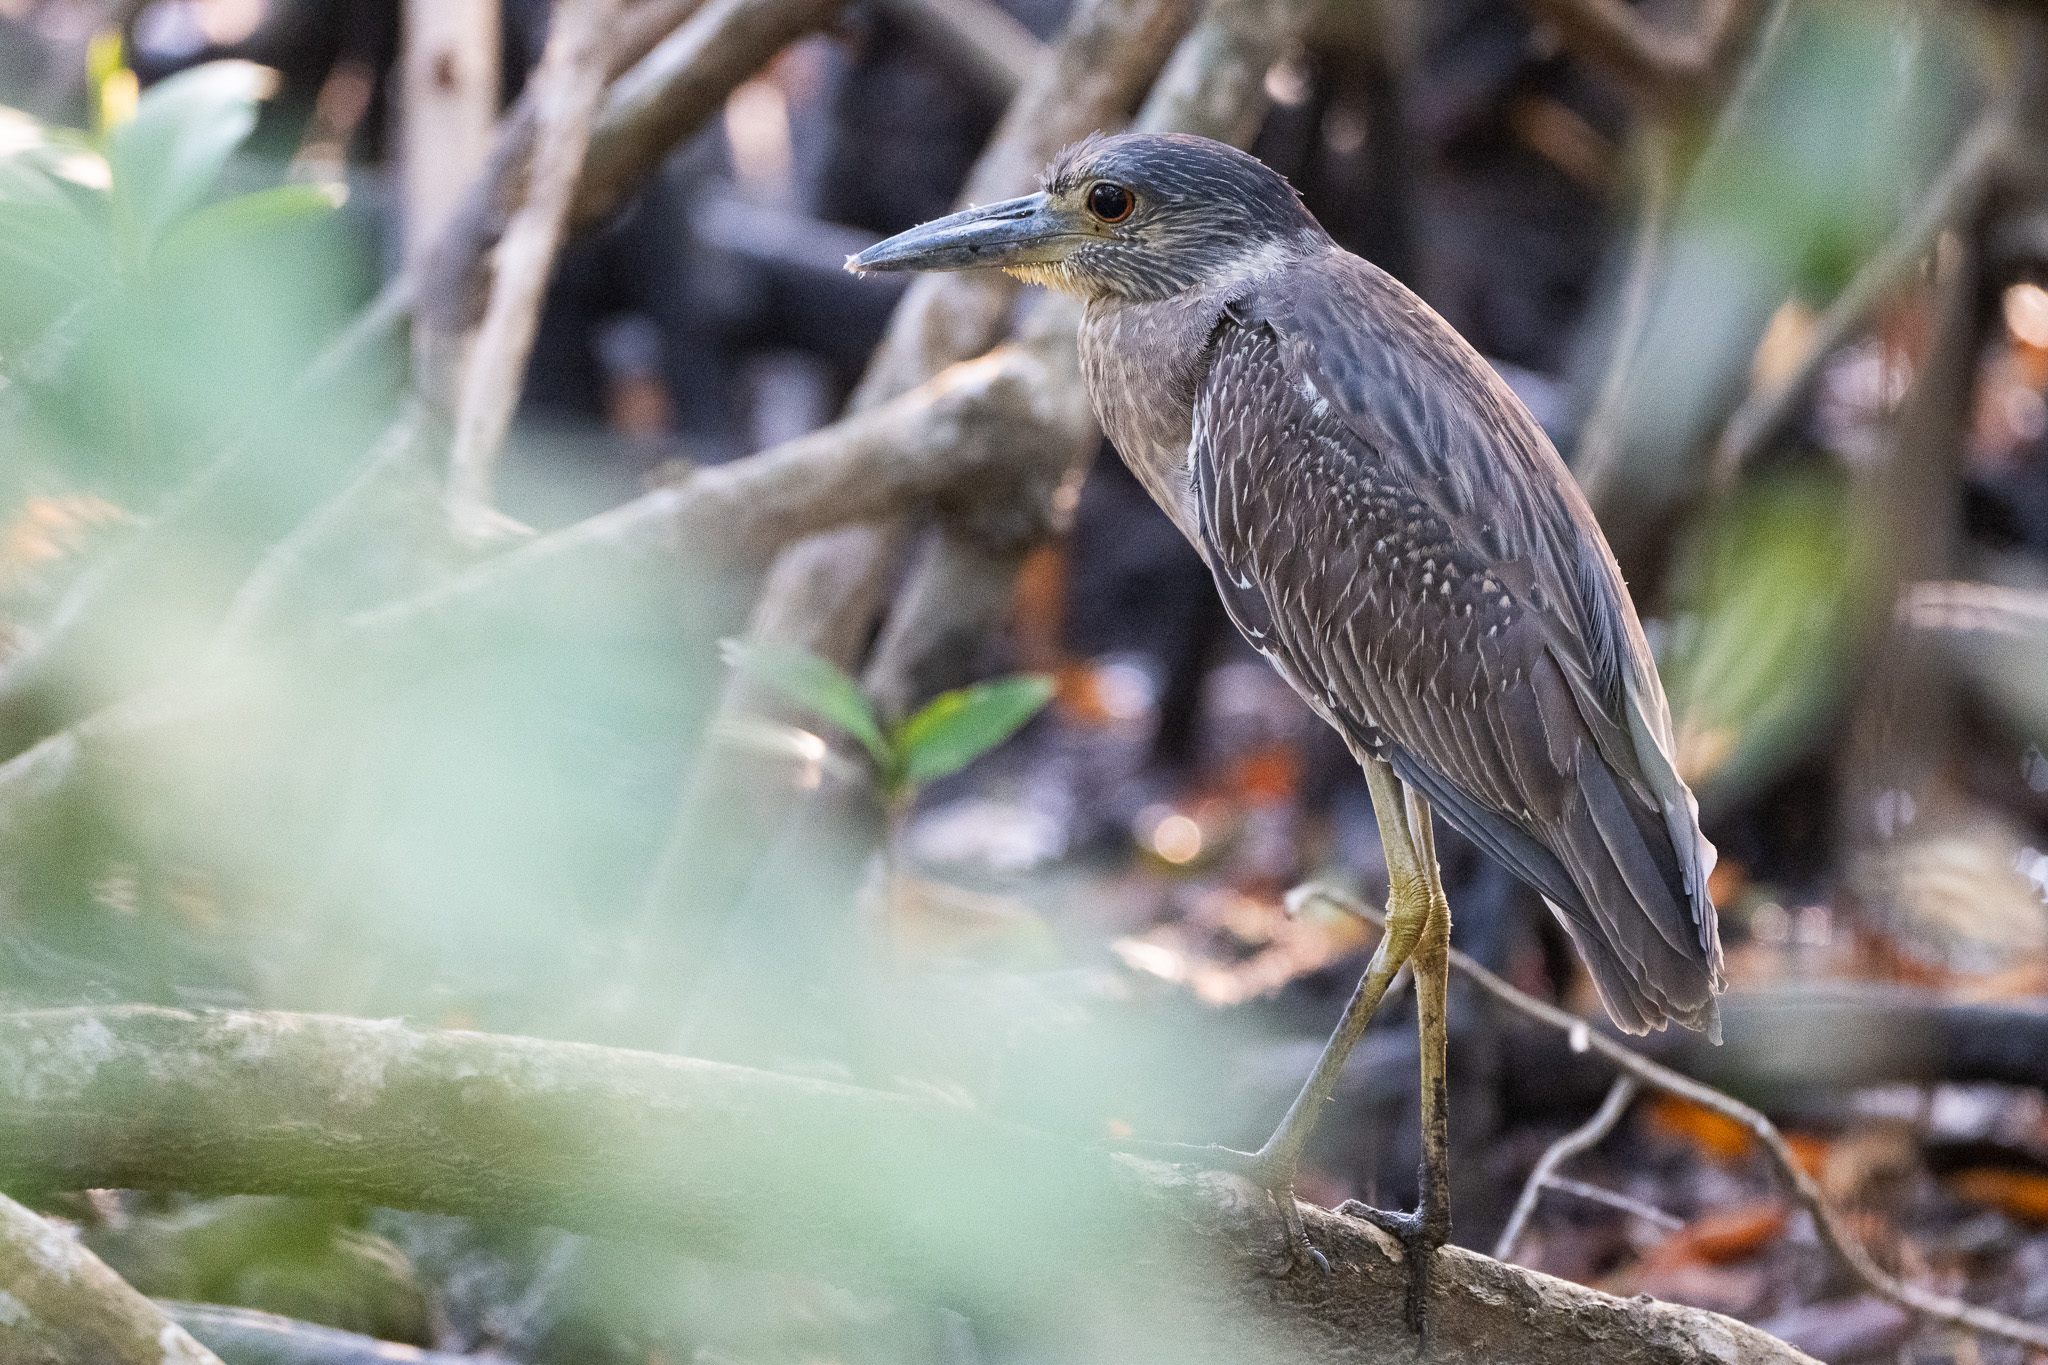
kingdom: Animalia
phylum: Chordata
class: Aves
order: Pelecaniformes
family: Ardeidae
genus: Nyctanassa
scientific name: Nyctanassa violacea
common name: Yellow-crowned night heron
